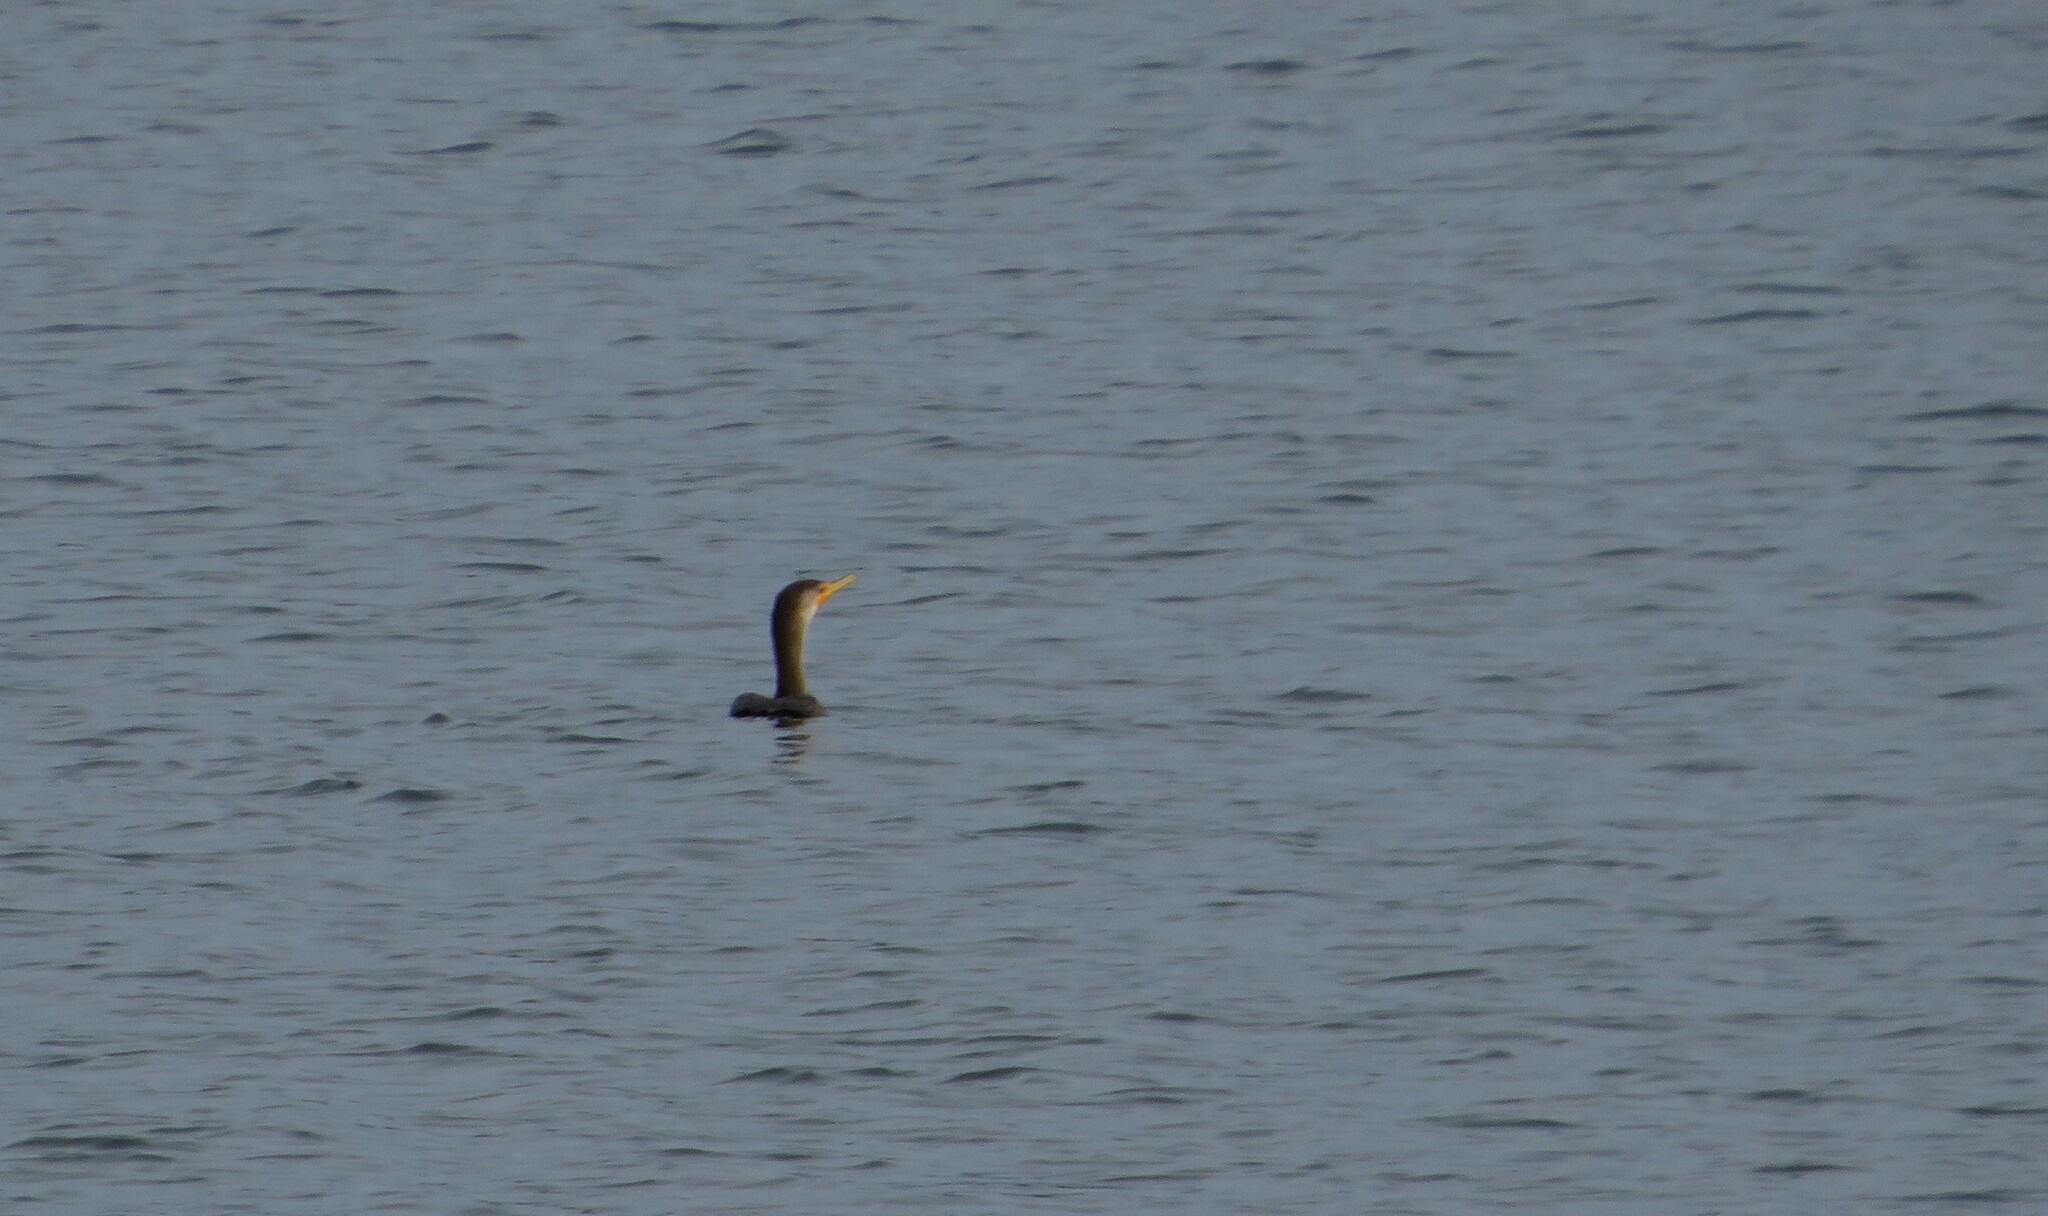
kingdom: Animalia
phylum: Chordata
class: Aves
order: Suliformes
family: Phalacrocoracidae
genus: Phalacrocorax
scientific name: Phalacrocorax auritus
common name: Double-crested cormorant
